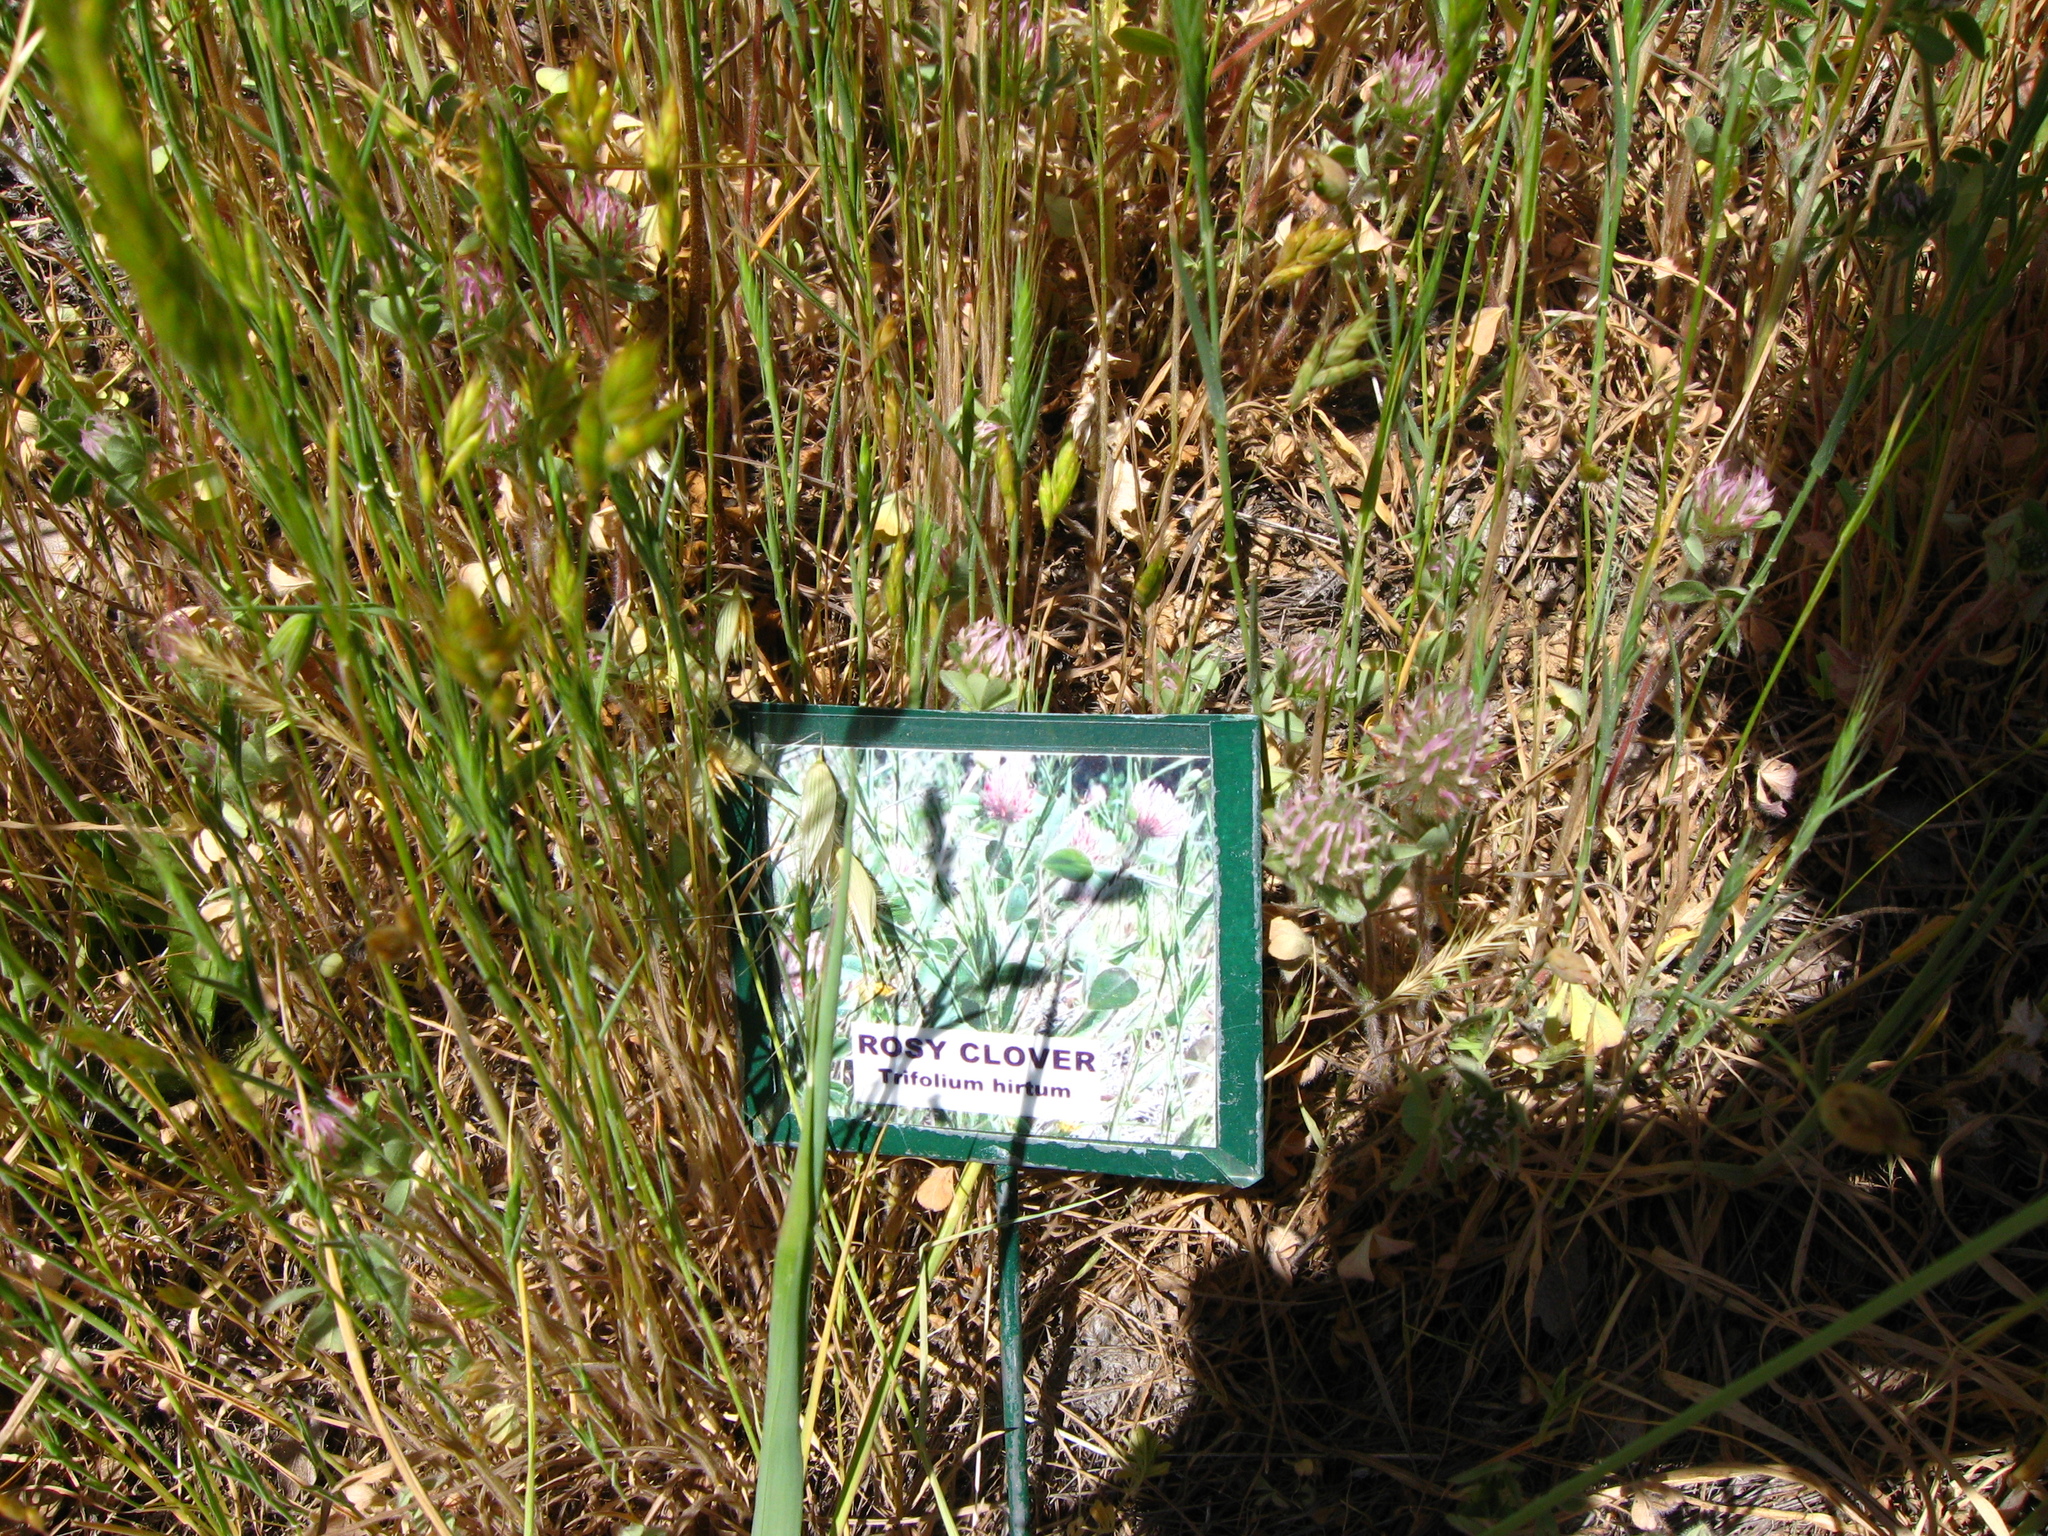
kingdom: Plantae
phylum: Tracheophyta
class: Magnoliopsida
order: Fabales
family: Fabaceae
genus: Trifolium
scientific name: Trifolium hirtum
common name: Rose clover
